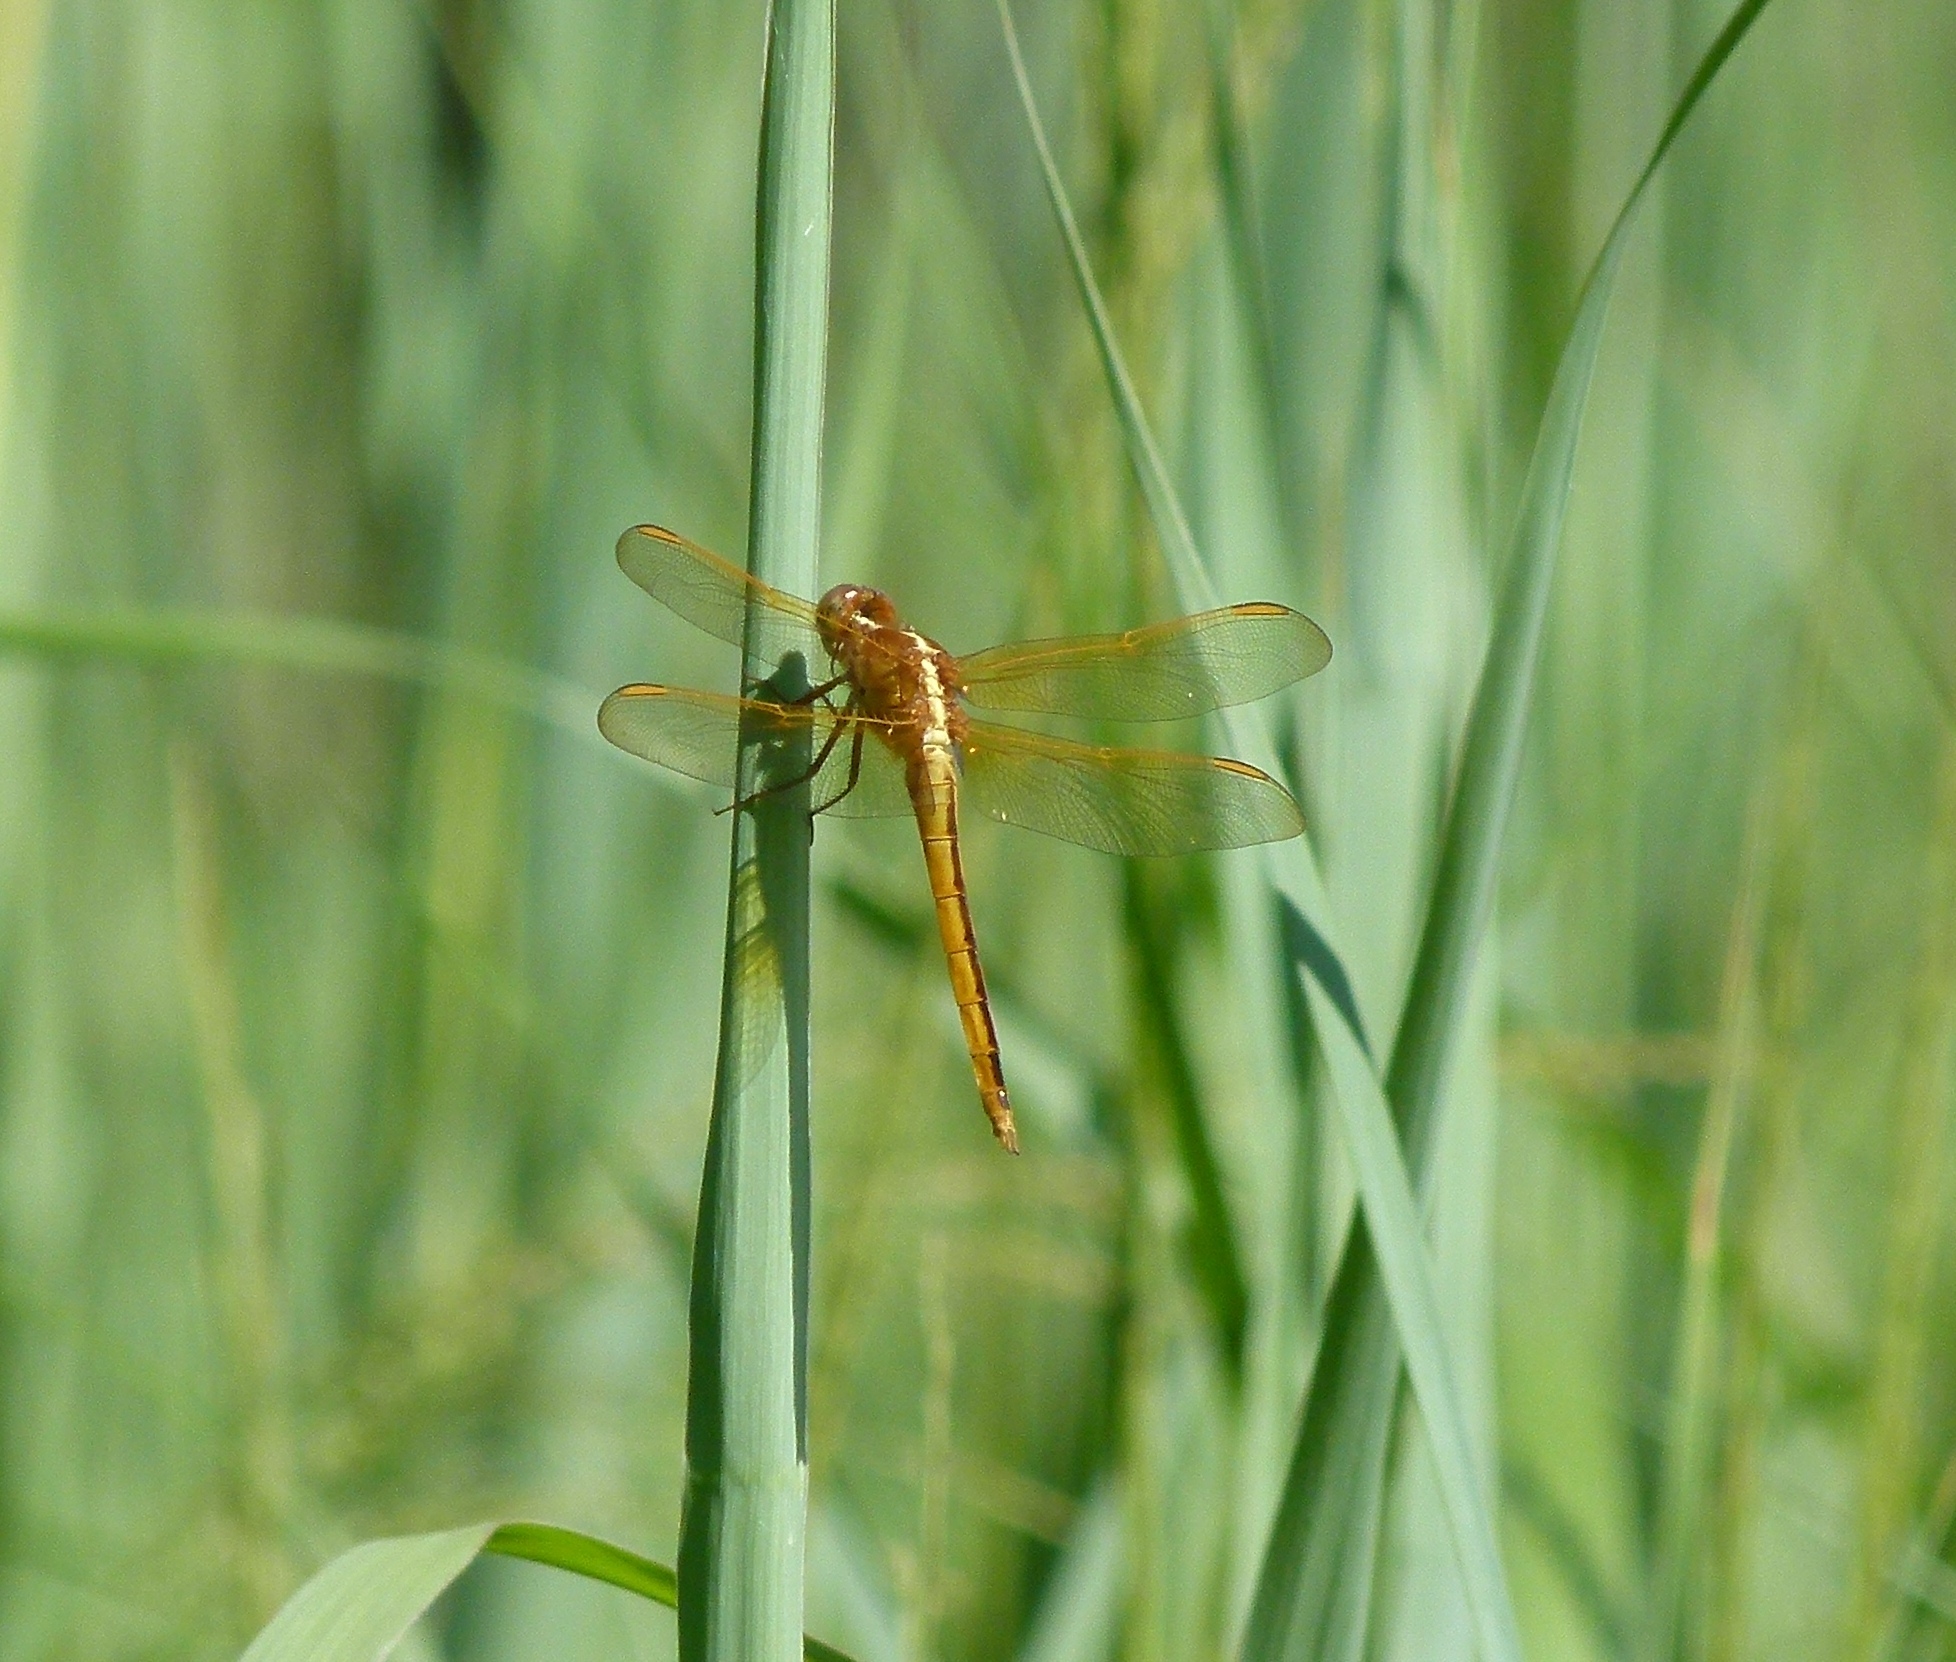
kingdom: Animalia
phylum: Arthropoda
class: Insecta
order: Odonata
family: Libellulidae
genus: Libellula
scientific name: Libellula needhami
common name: Needham's skimmer
